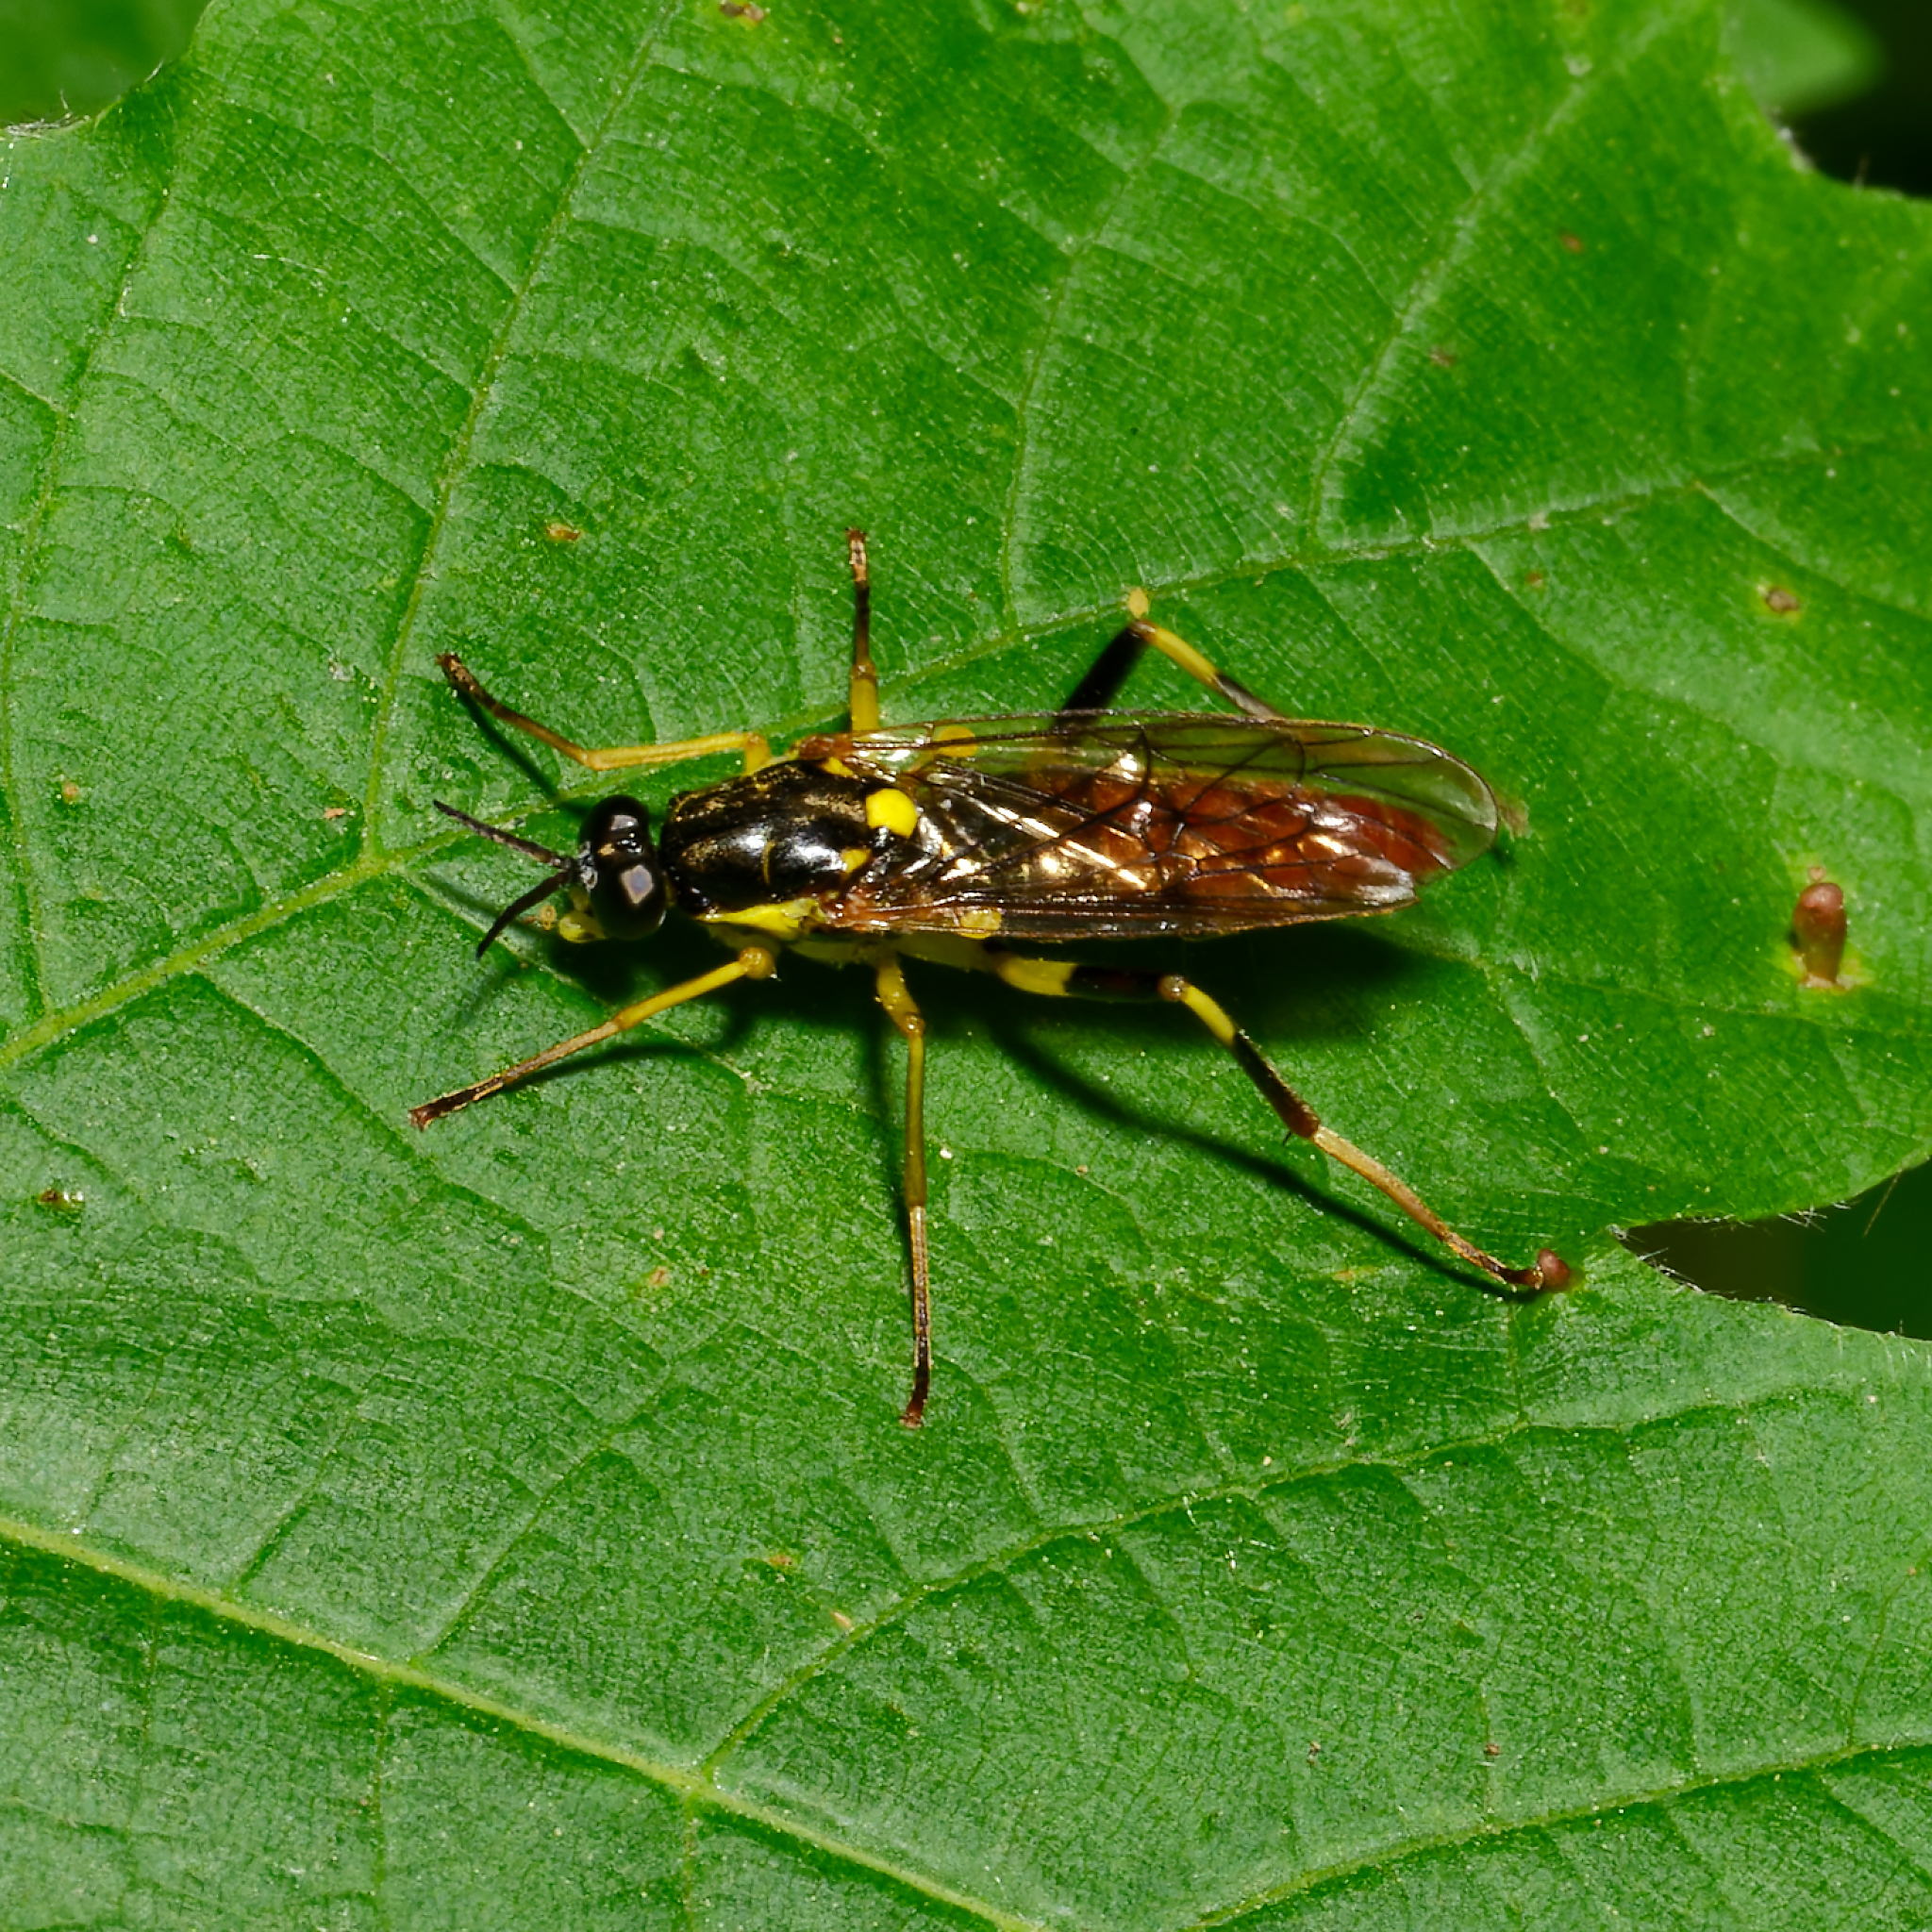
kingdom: Animalia
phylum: Arthropoda
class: Insecta
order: Diptera
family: Xylomyidae
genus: Xylomya
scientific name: Xylomya simillima
